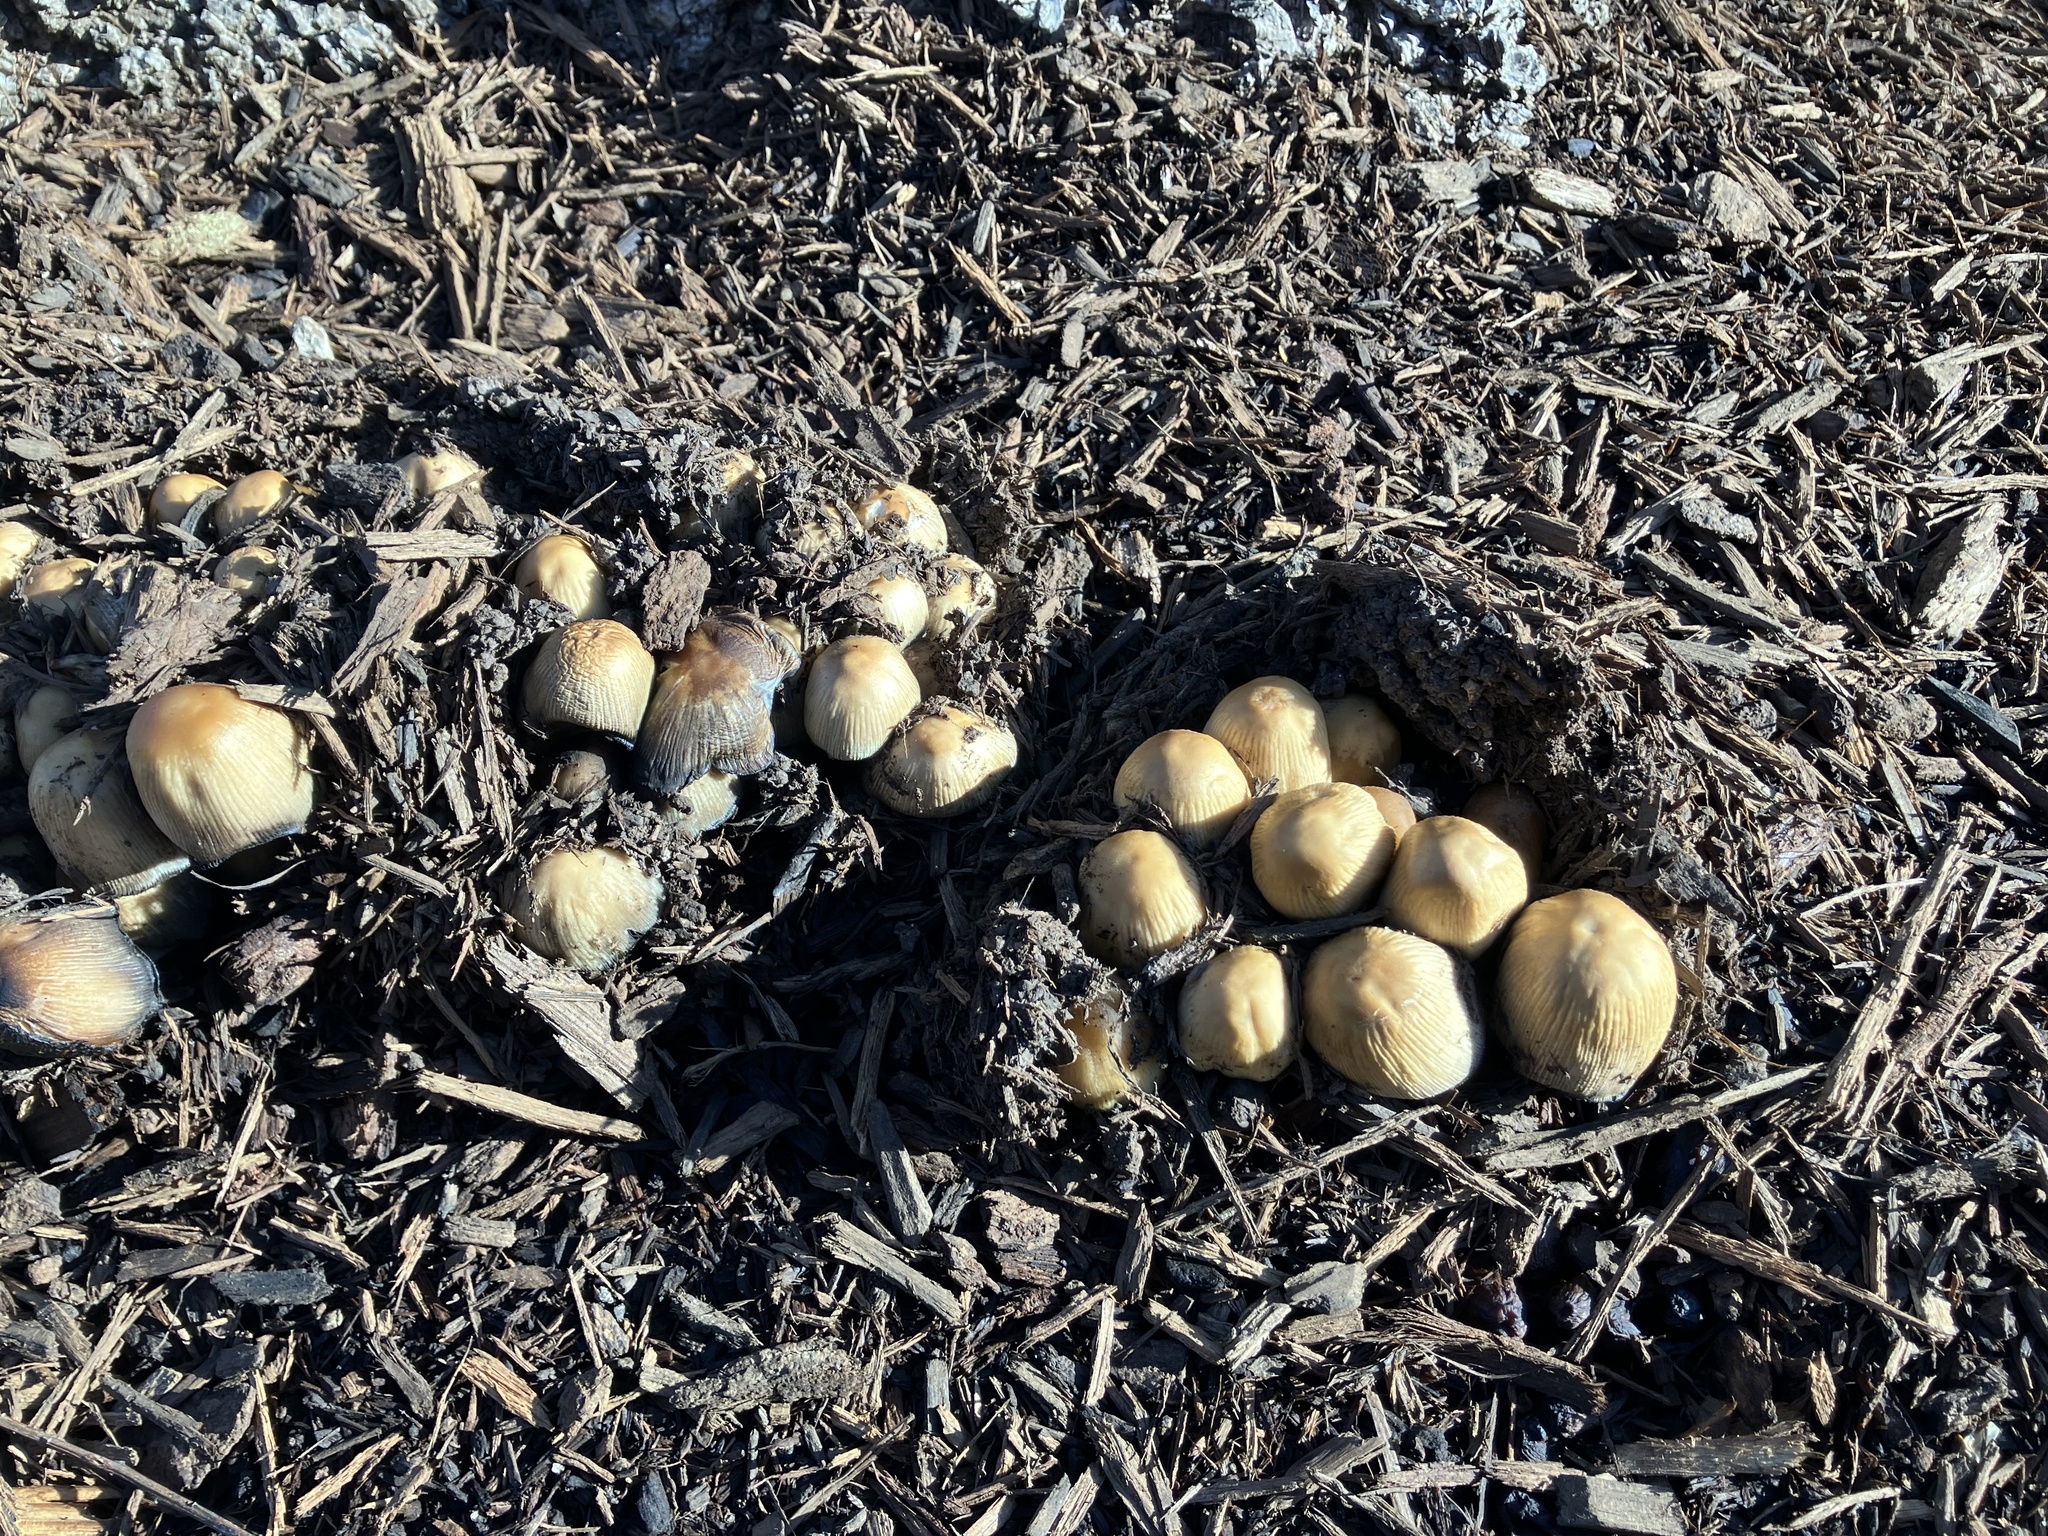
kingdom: Fungi
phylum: Basidiomycota
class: Agaricomycetes
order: Agaricales
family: Psathyrellaceae
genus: Coprinellus
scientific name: Coprinellus micaceus
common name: Glistening ink-cap
